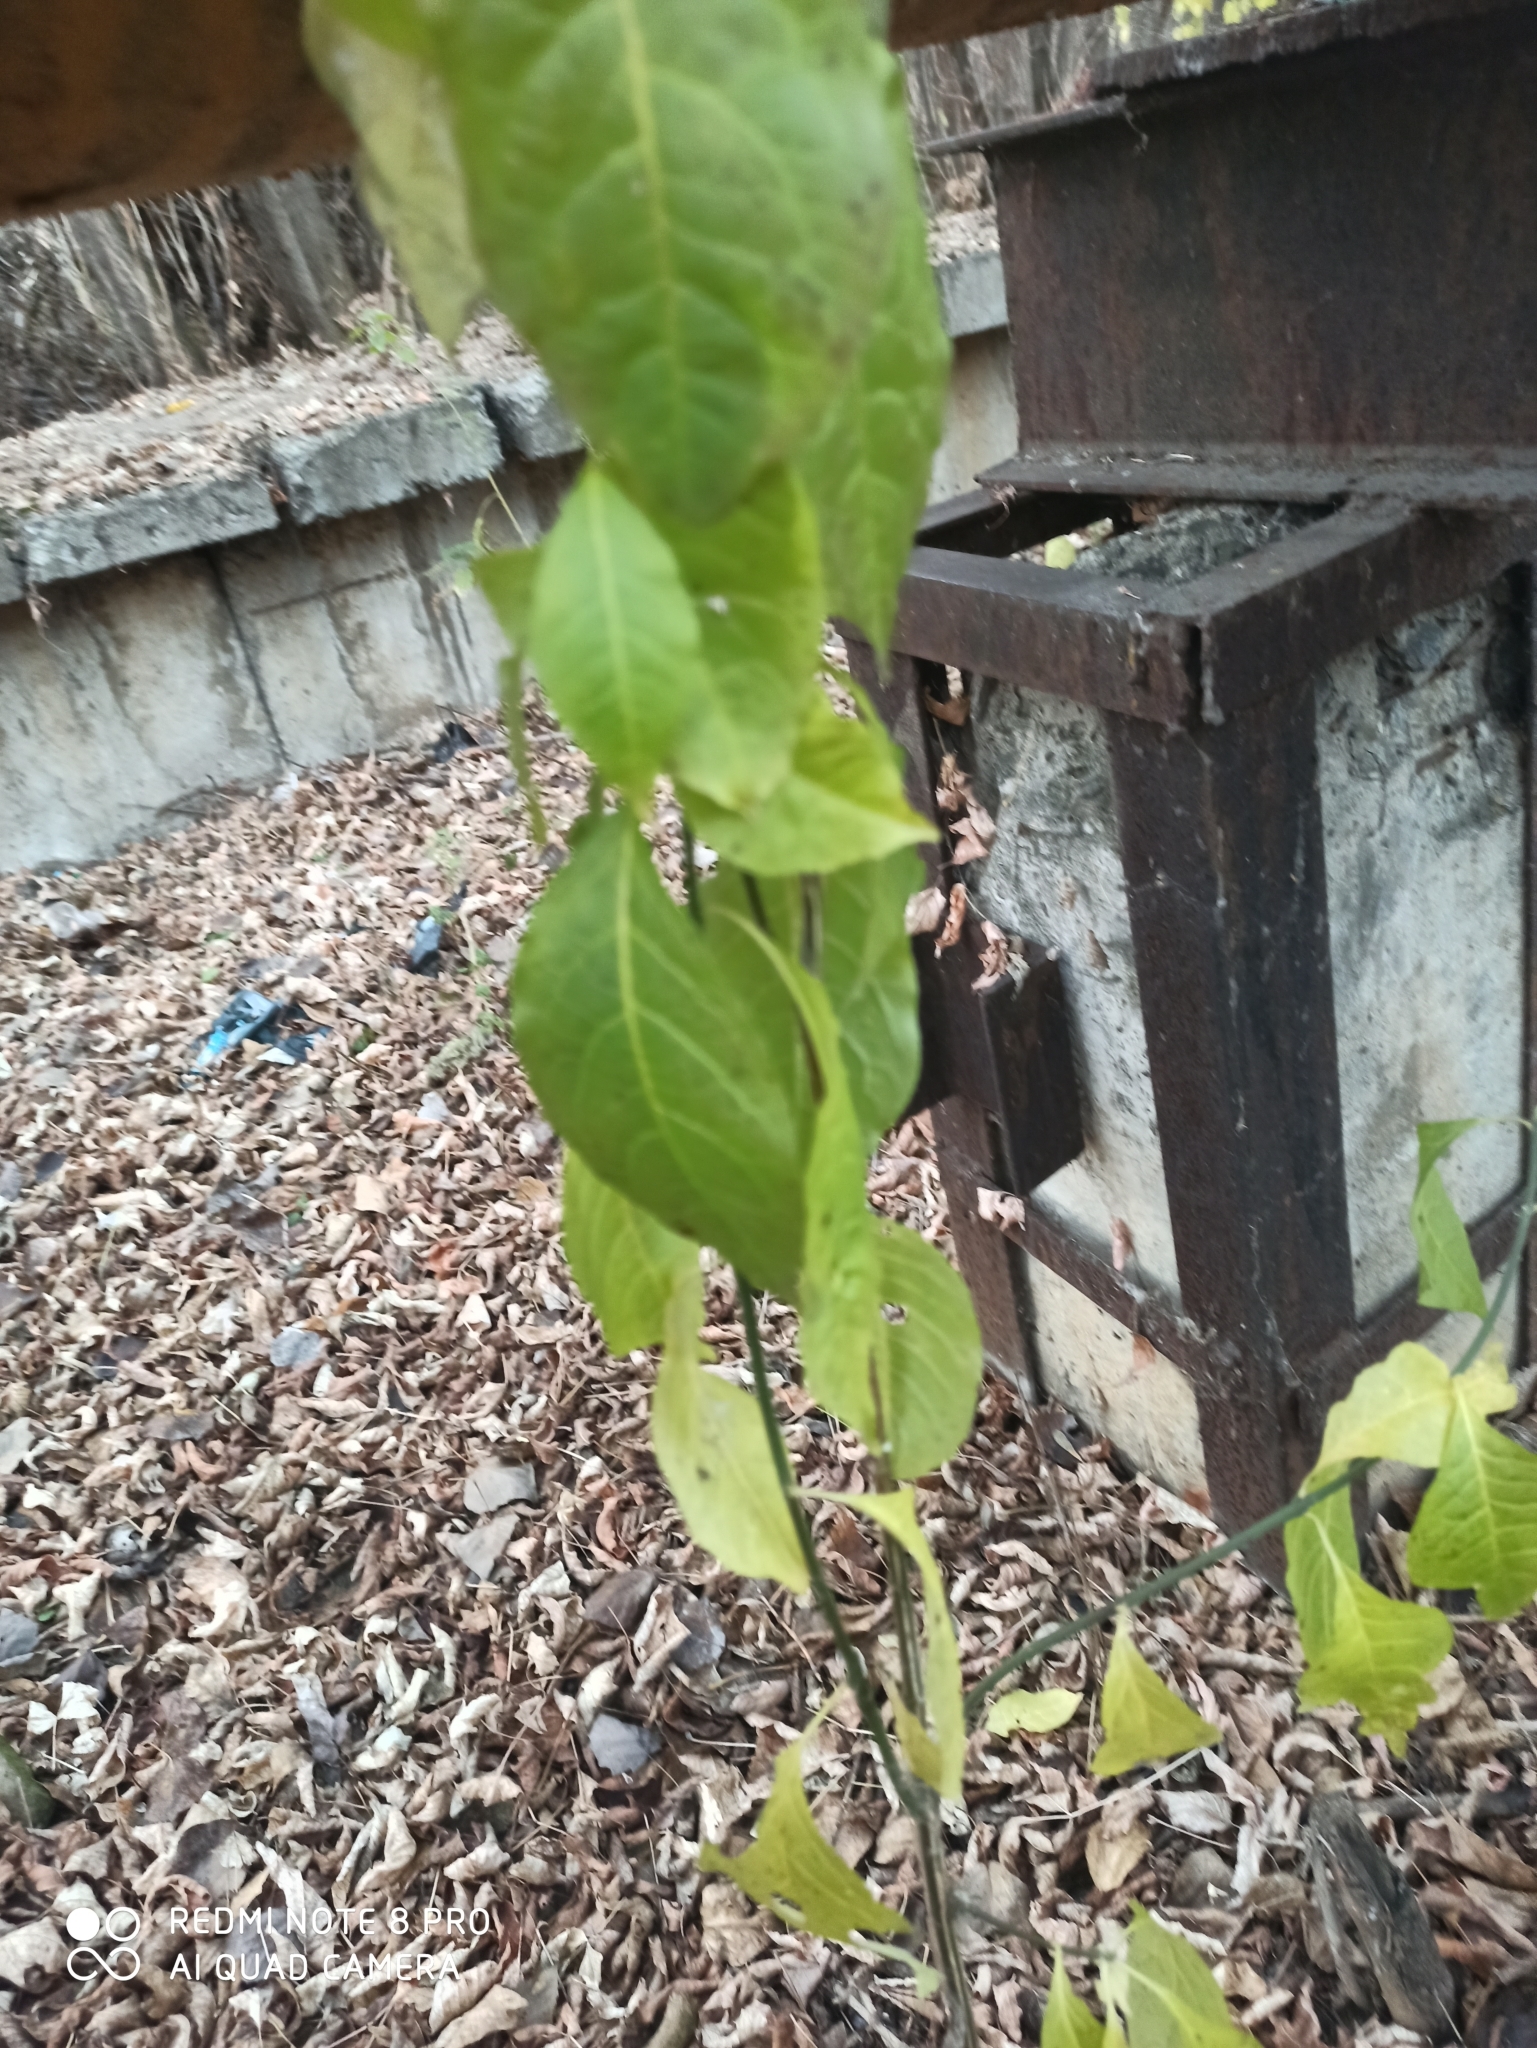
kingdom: Plantae
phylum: Tracheophyta
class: Magnoliopsida
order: Celastrales
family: Celastraceae
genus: Euonymus
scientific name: Euonymus europaeus
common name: Spindle
